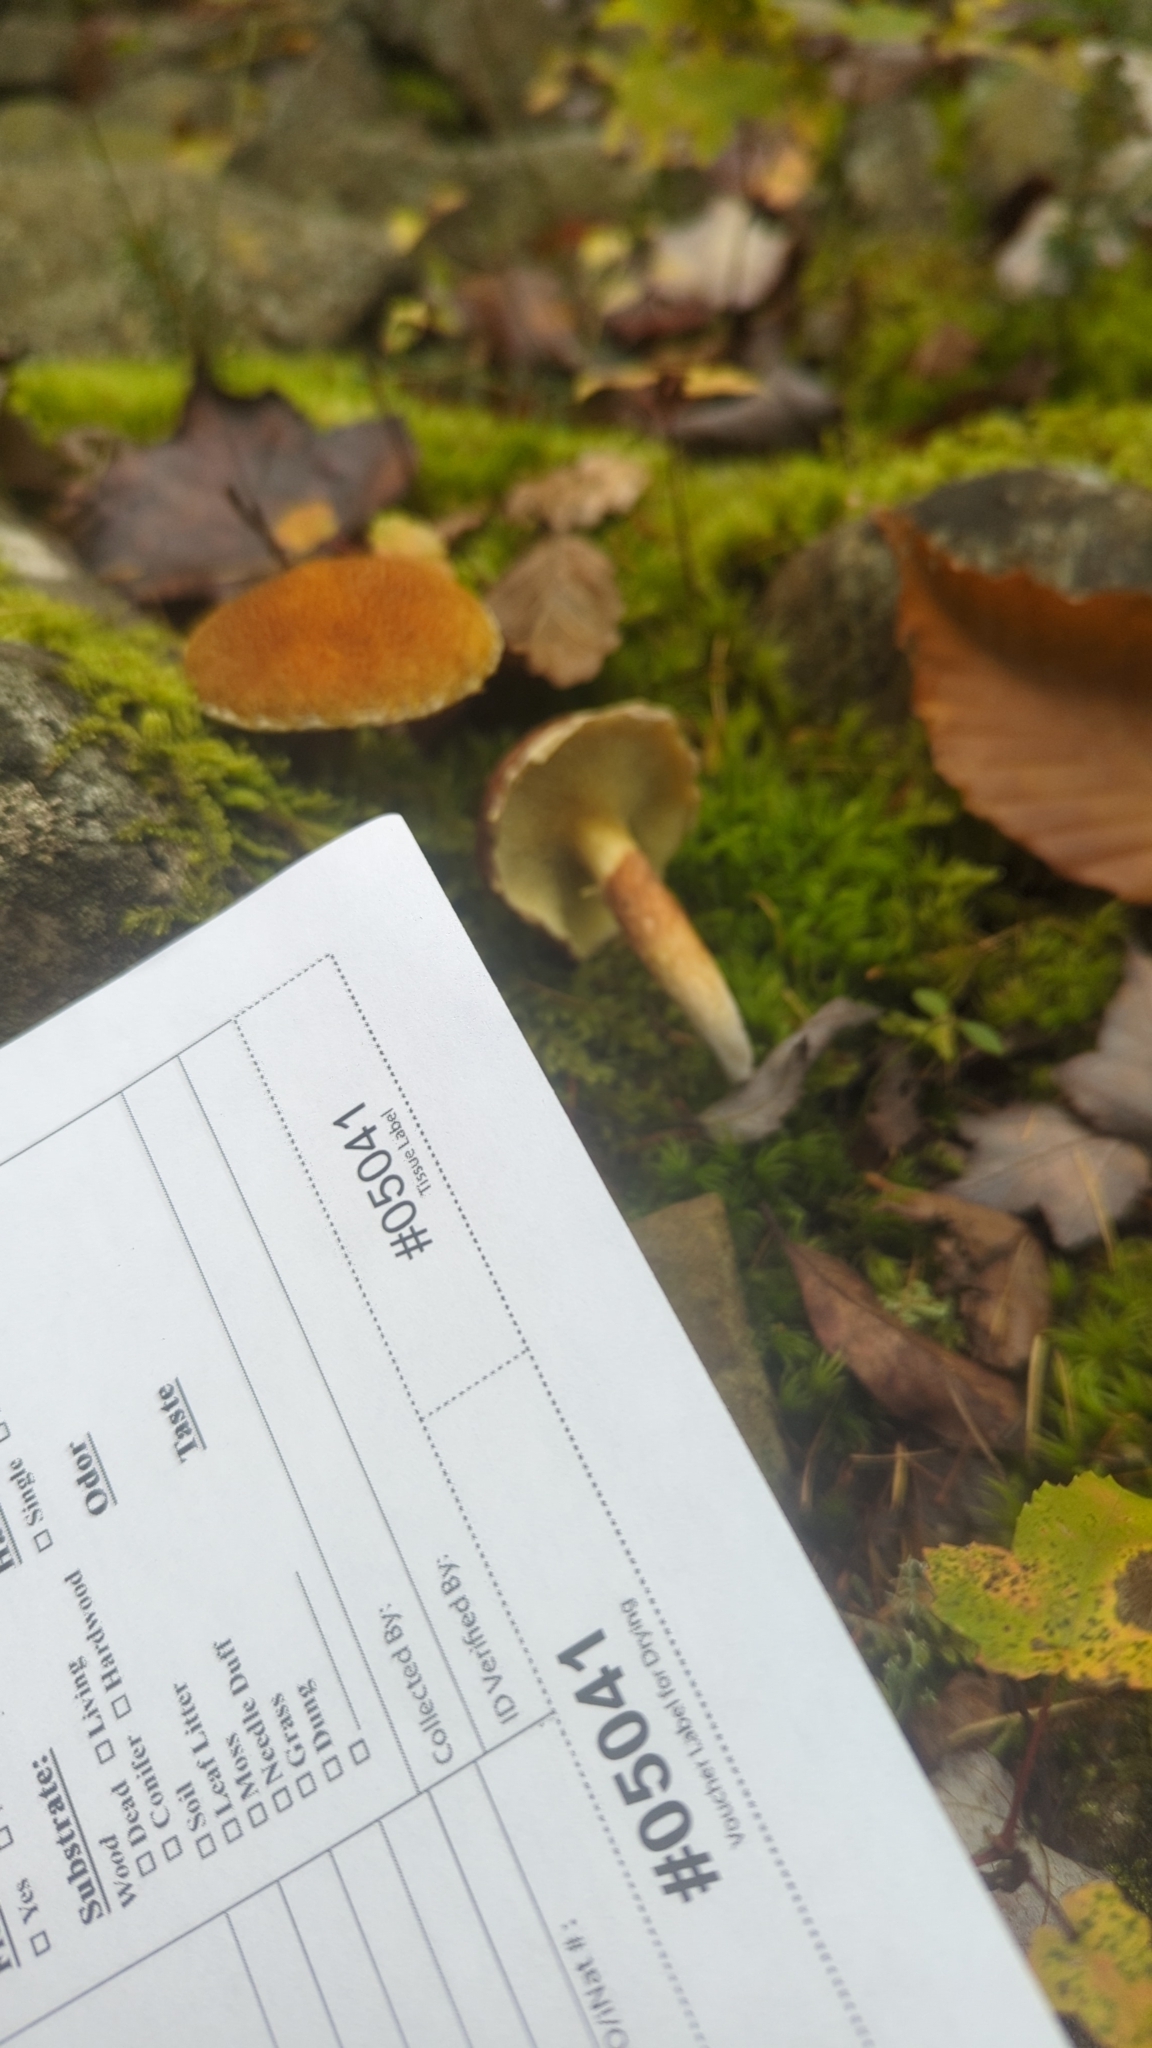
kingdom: Fungi
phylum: Basidiomycota
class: Agaricomycetes
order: Boletales
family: Suillaceae
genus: Boletinus
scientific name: Boletinus ampliporus
